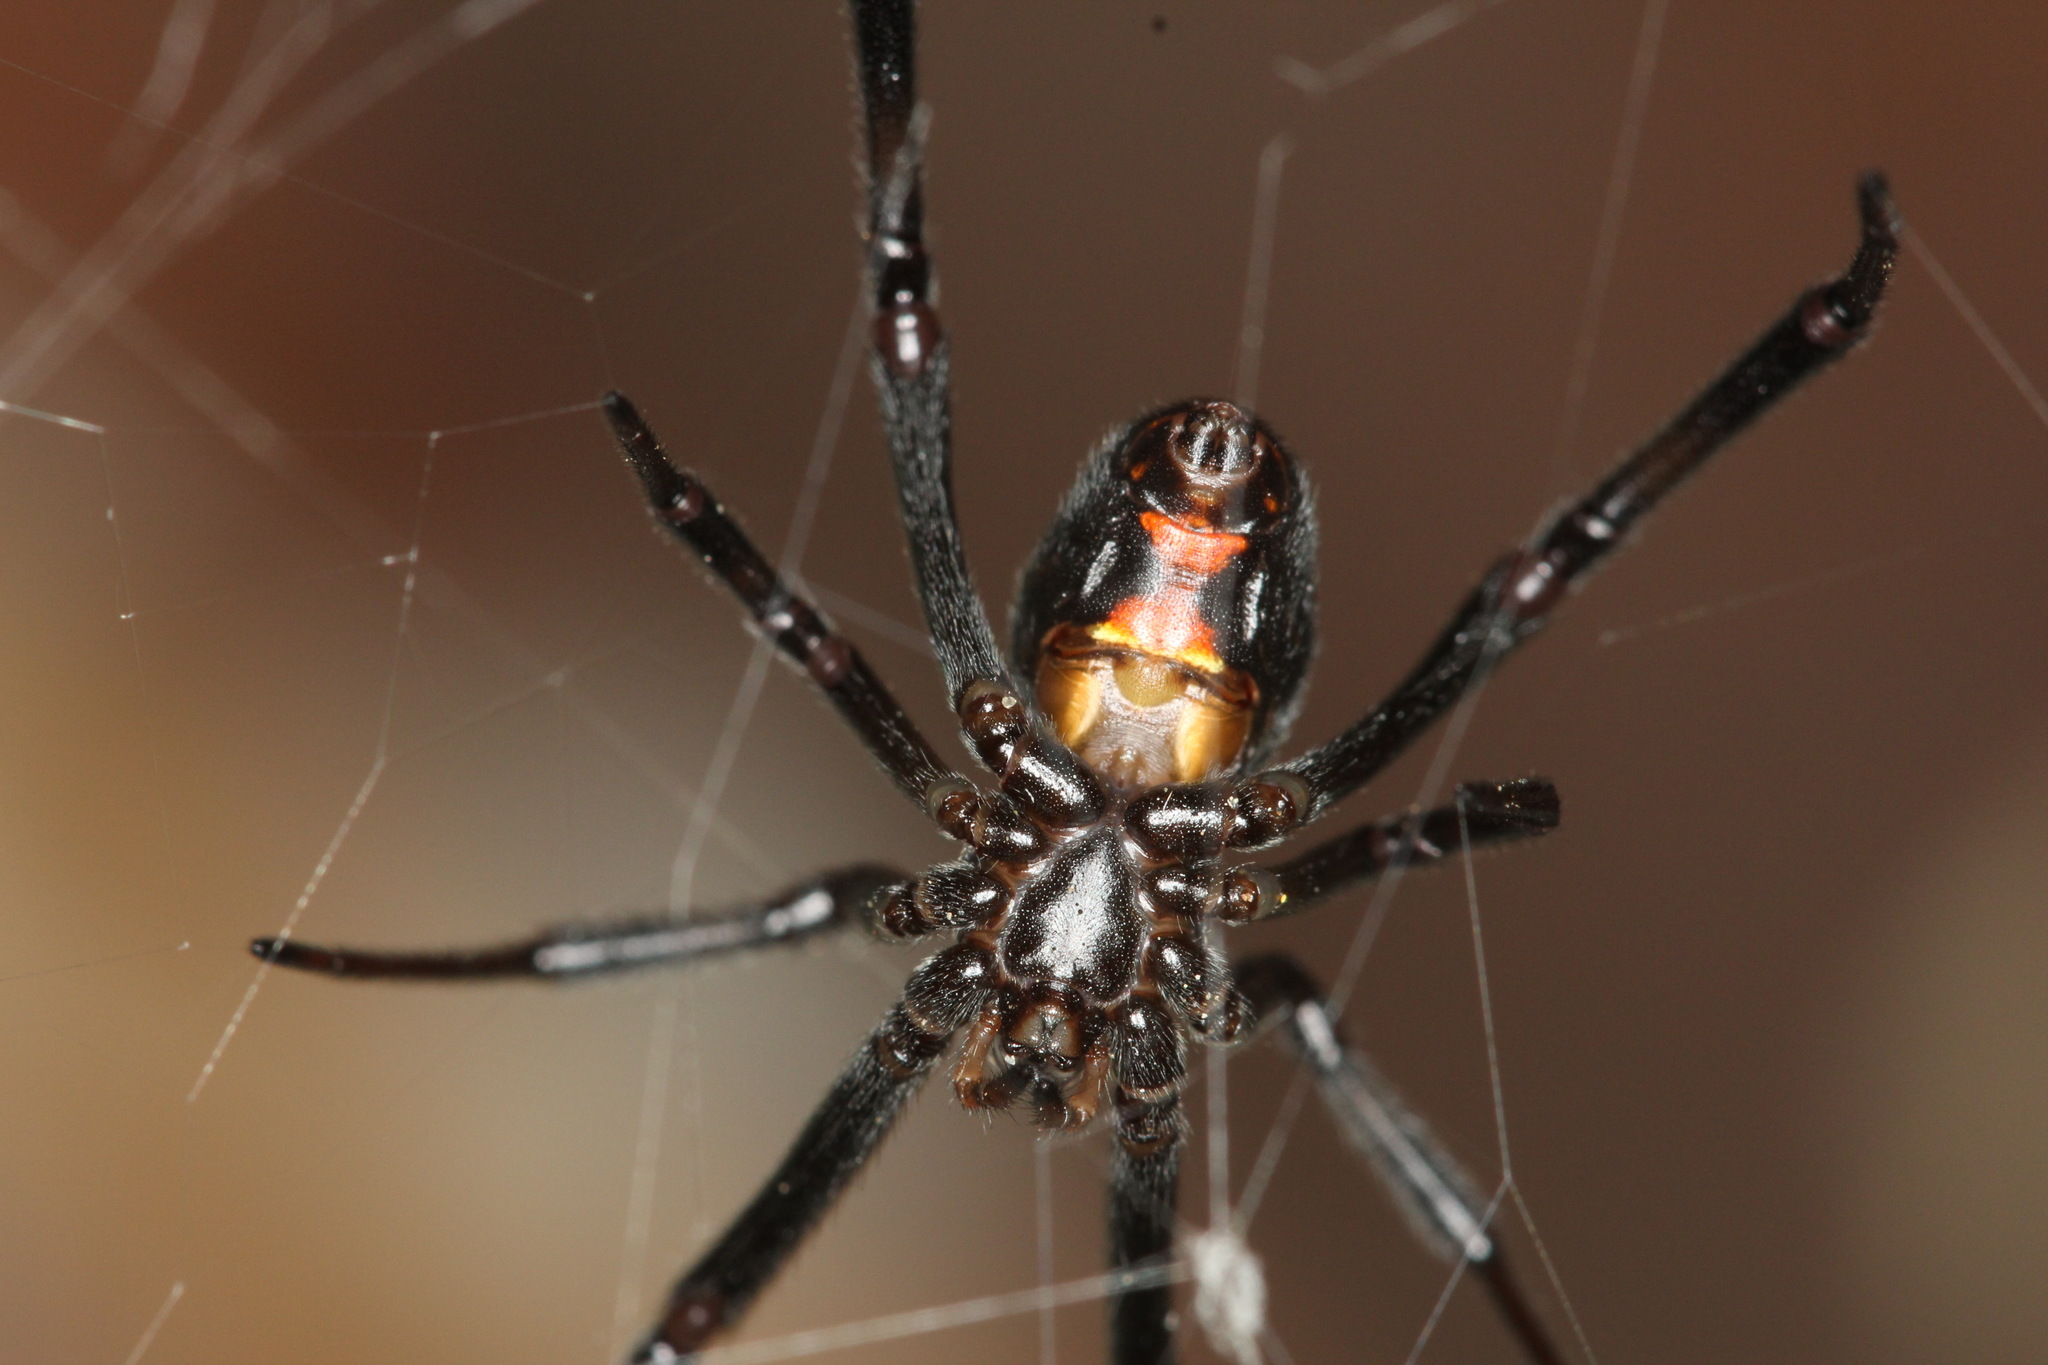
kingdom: Animalia
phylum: Arthropoda
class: Arachnida
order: Araneae
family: Theridiidae
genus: Latrodectus
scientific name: Latrodectus hesperus
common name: Western black widow
